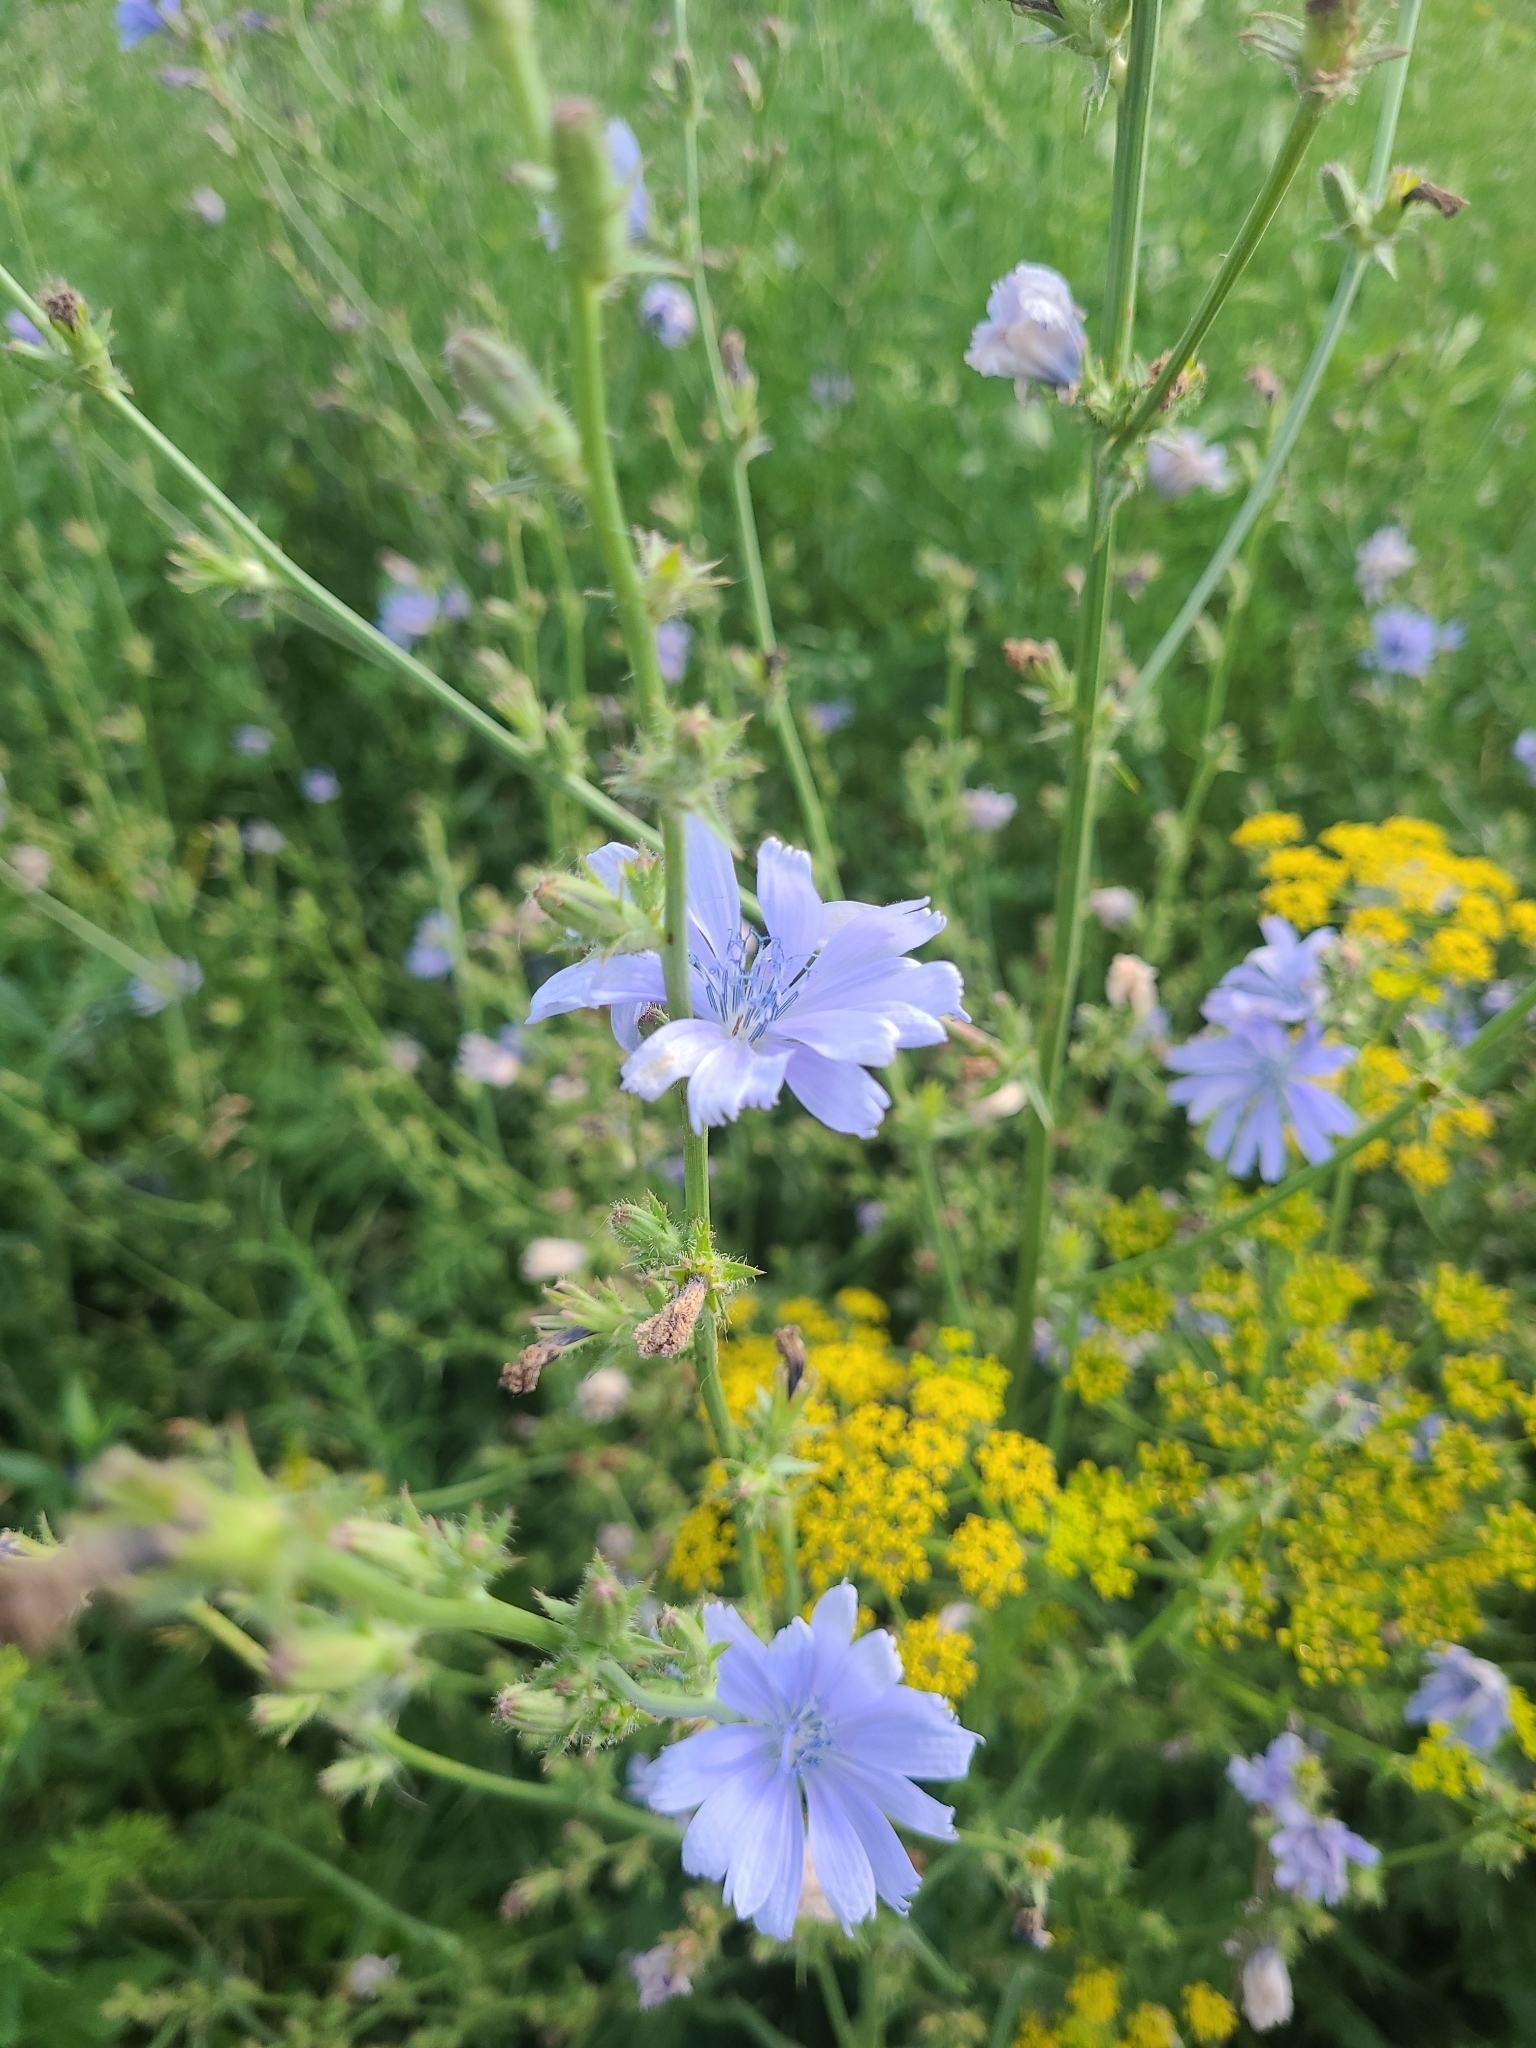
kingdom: Plantae
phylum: Tracheophyta
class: Magnoliopsida
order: Asterales
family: Asteraceae
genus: Cichorium
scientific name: Cichorium intybus
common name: Chicory
